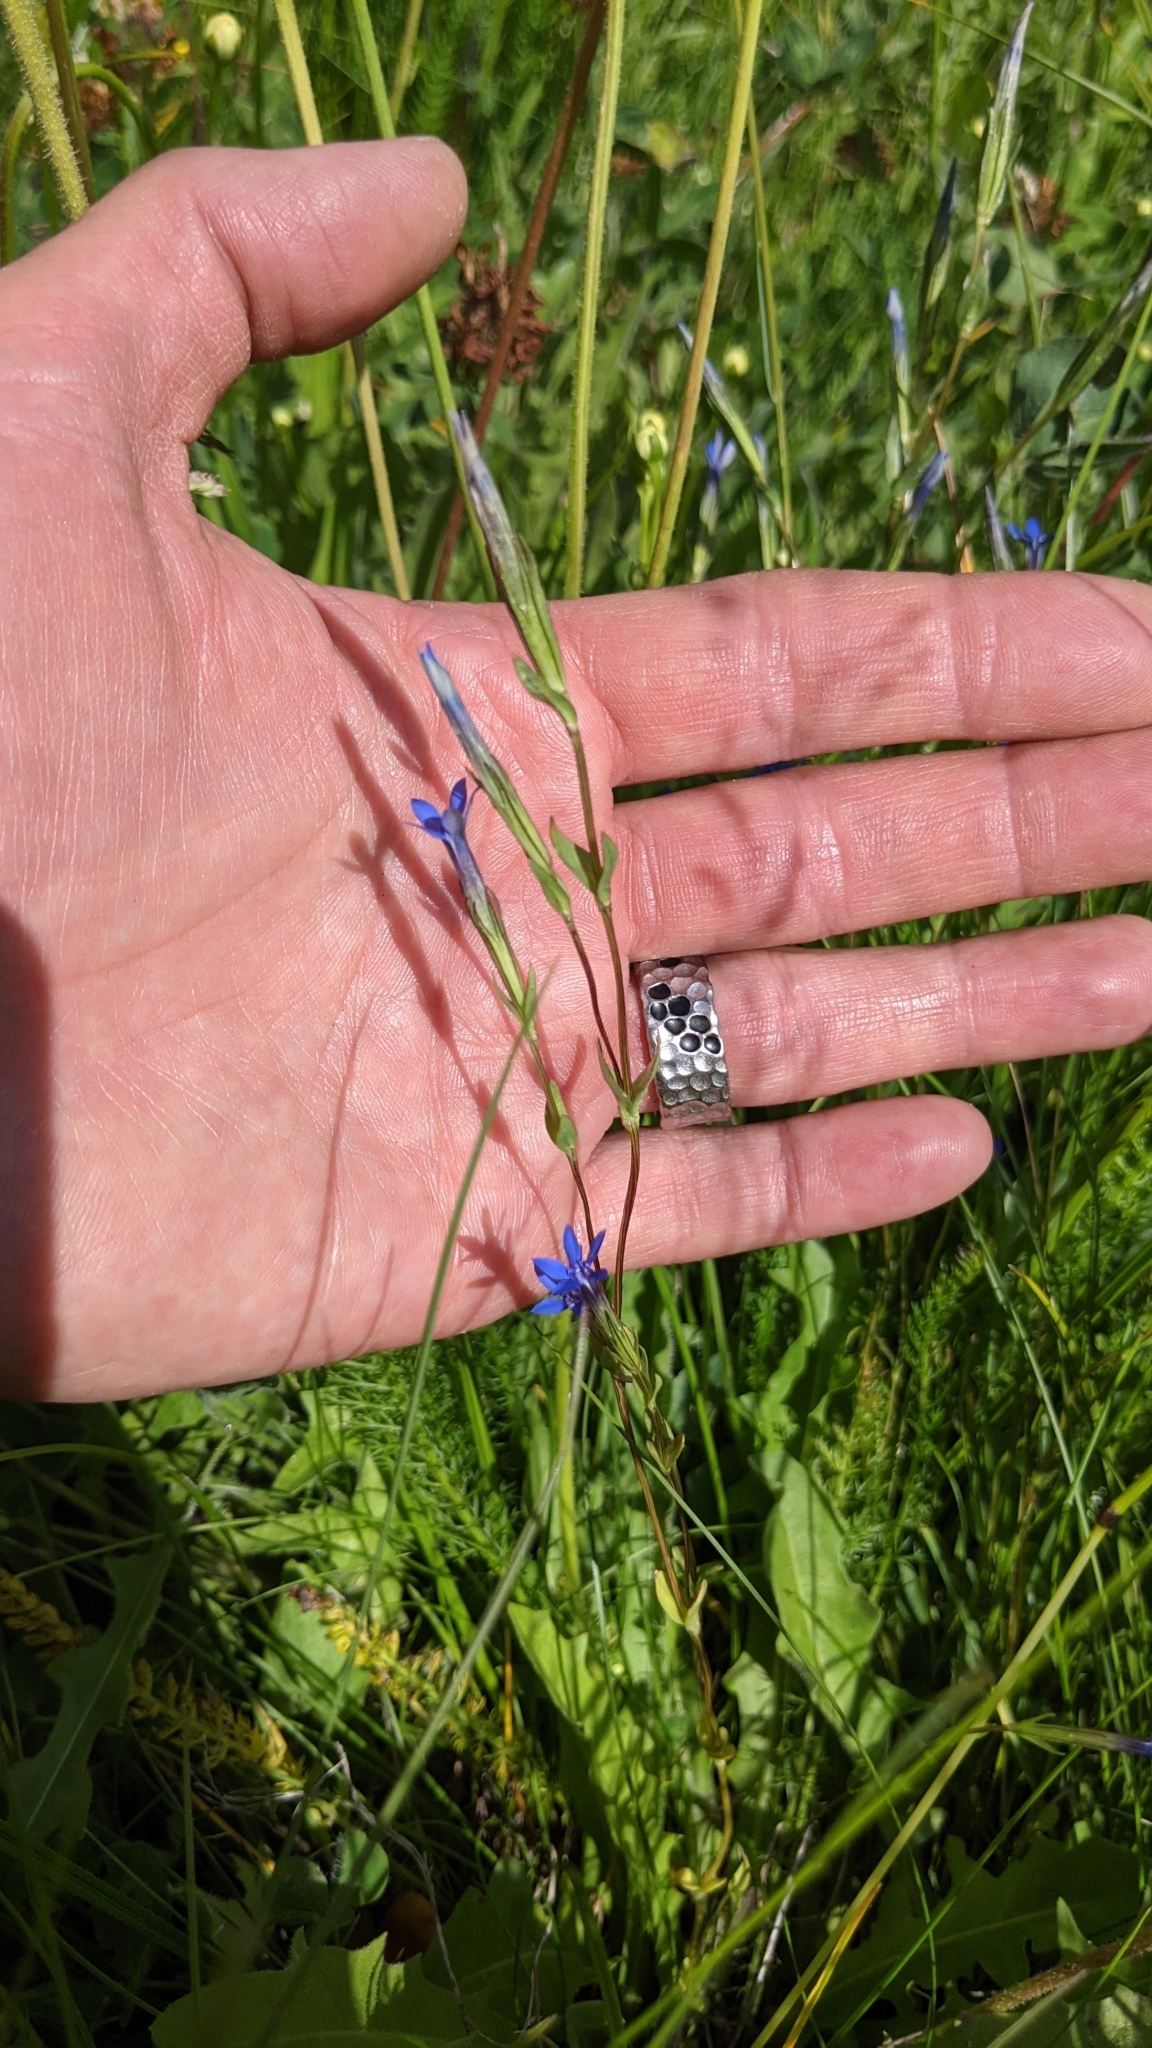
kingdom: Plantae
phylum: Tracheophyta
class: Magnoliopsida
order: Gentianales
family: Gentianaceae
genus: Gentiana
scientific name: Gentiana nivalis
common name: Alpine gentian
